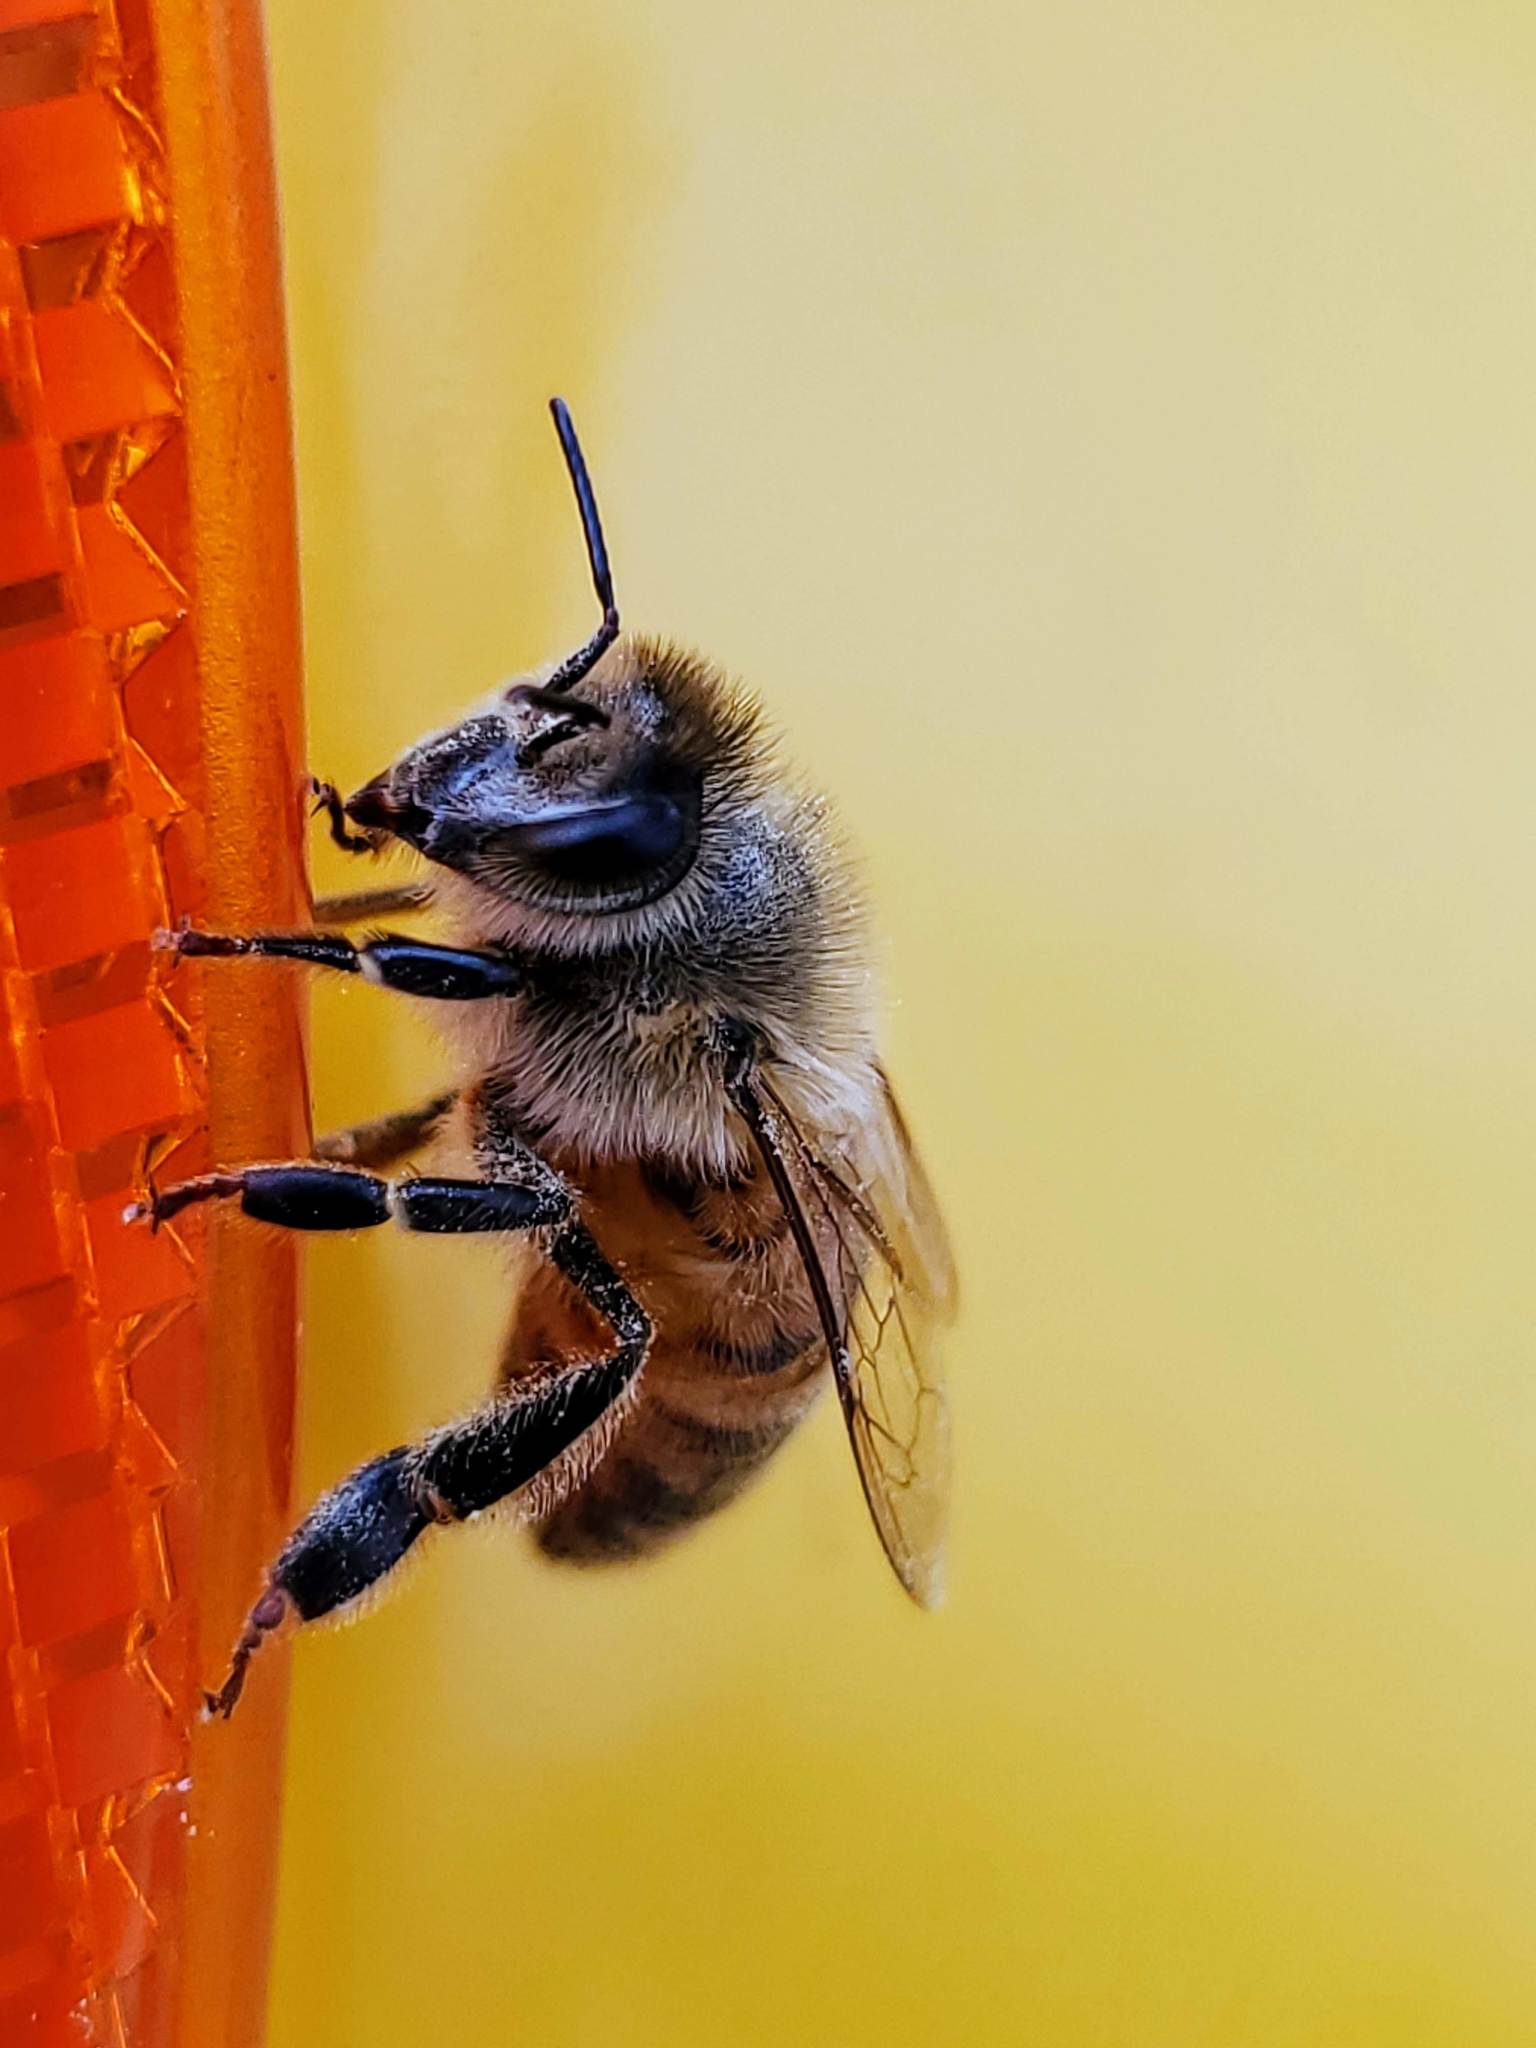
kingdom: Animalia
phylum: Arthropoda
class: Insecta
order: Hymenoptera
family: Apidae
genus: Apis
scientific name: Apis mellifera
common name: Honey bee
